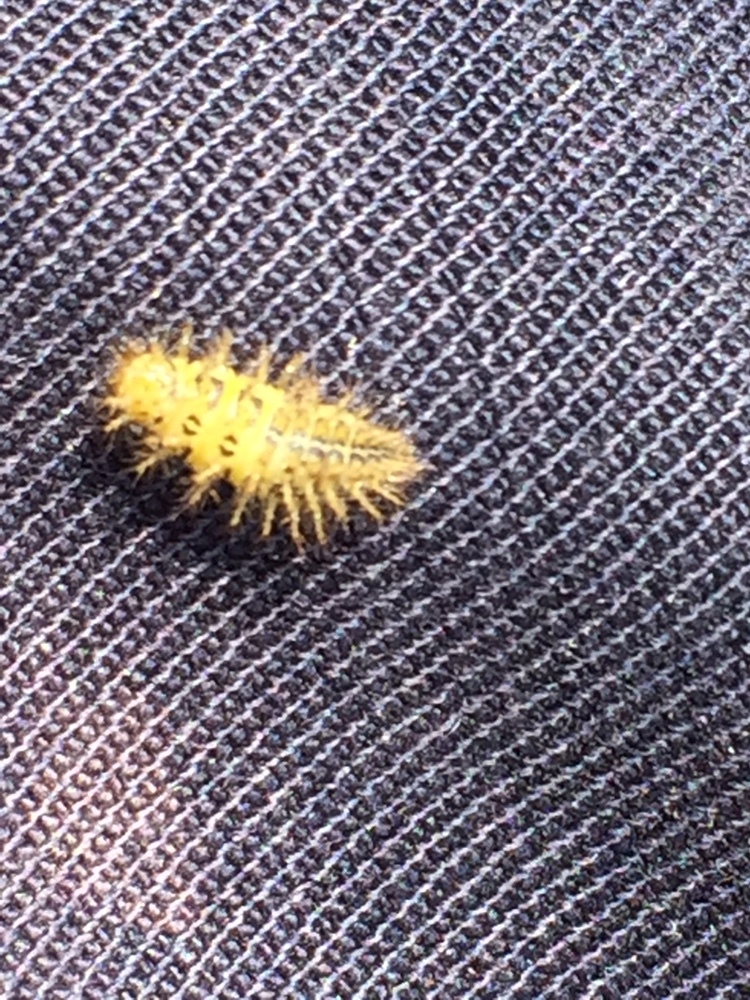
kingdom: Animalia
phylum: Arthropoda
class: Insecta
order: Coleoptera
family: Coccinellidae
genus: Subcoccinella
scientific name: Subcoccinella vigintiquatuorpunctata
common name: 24-spot ladybird
